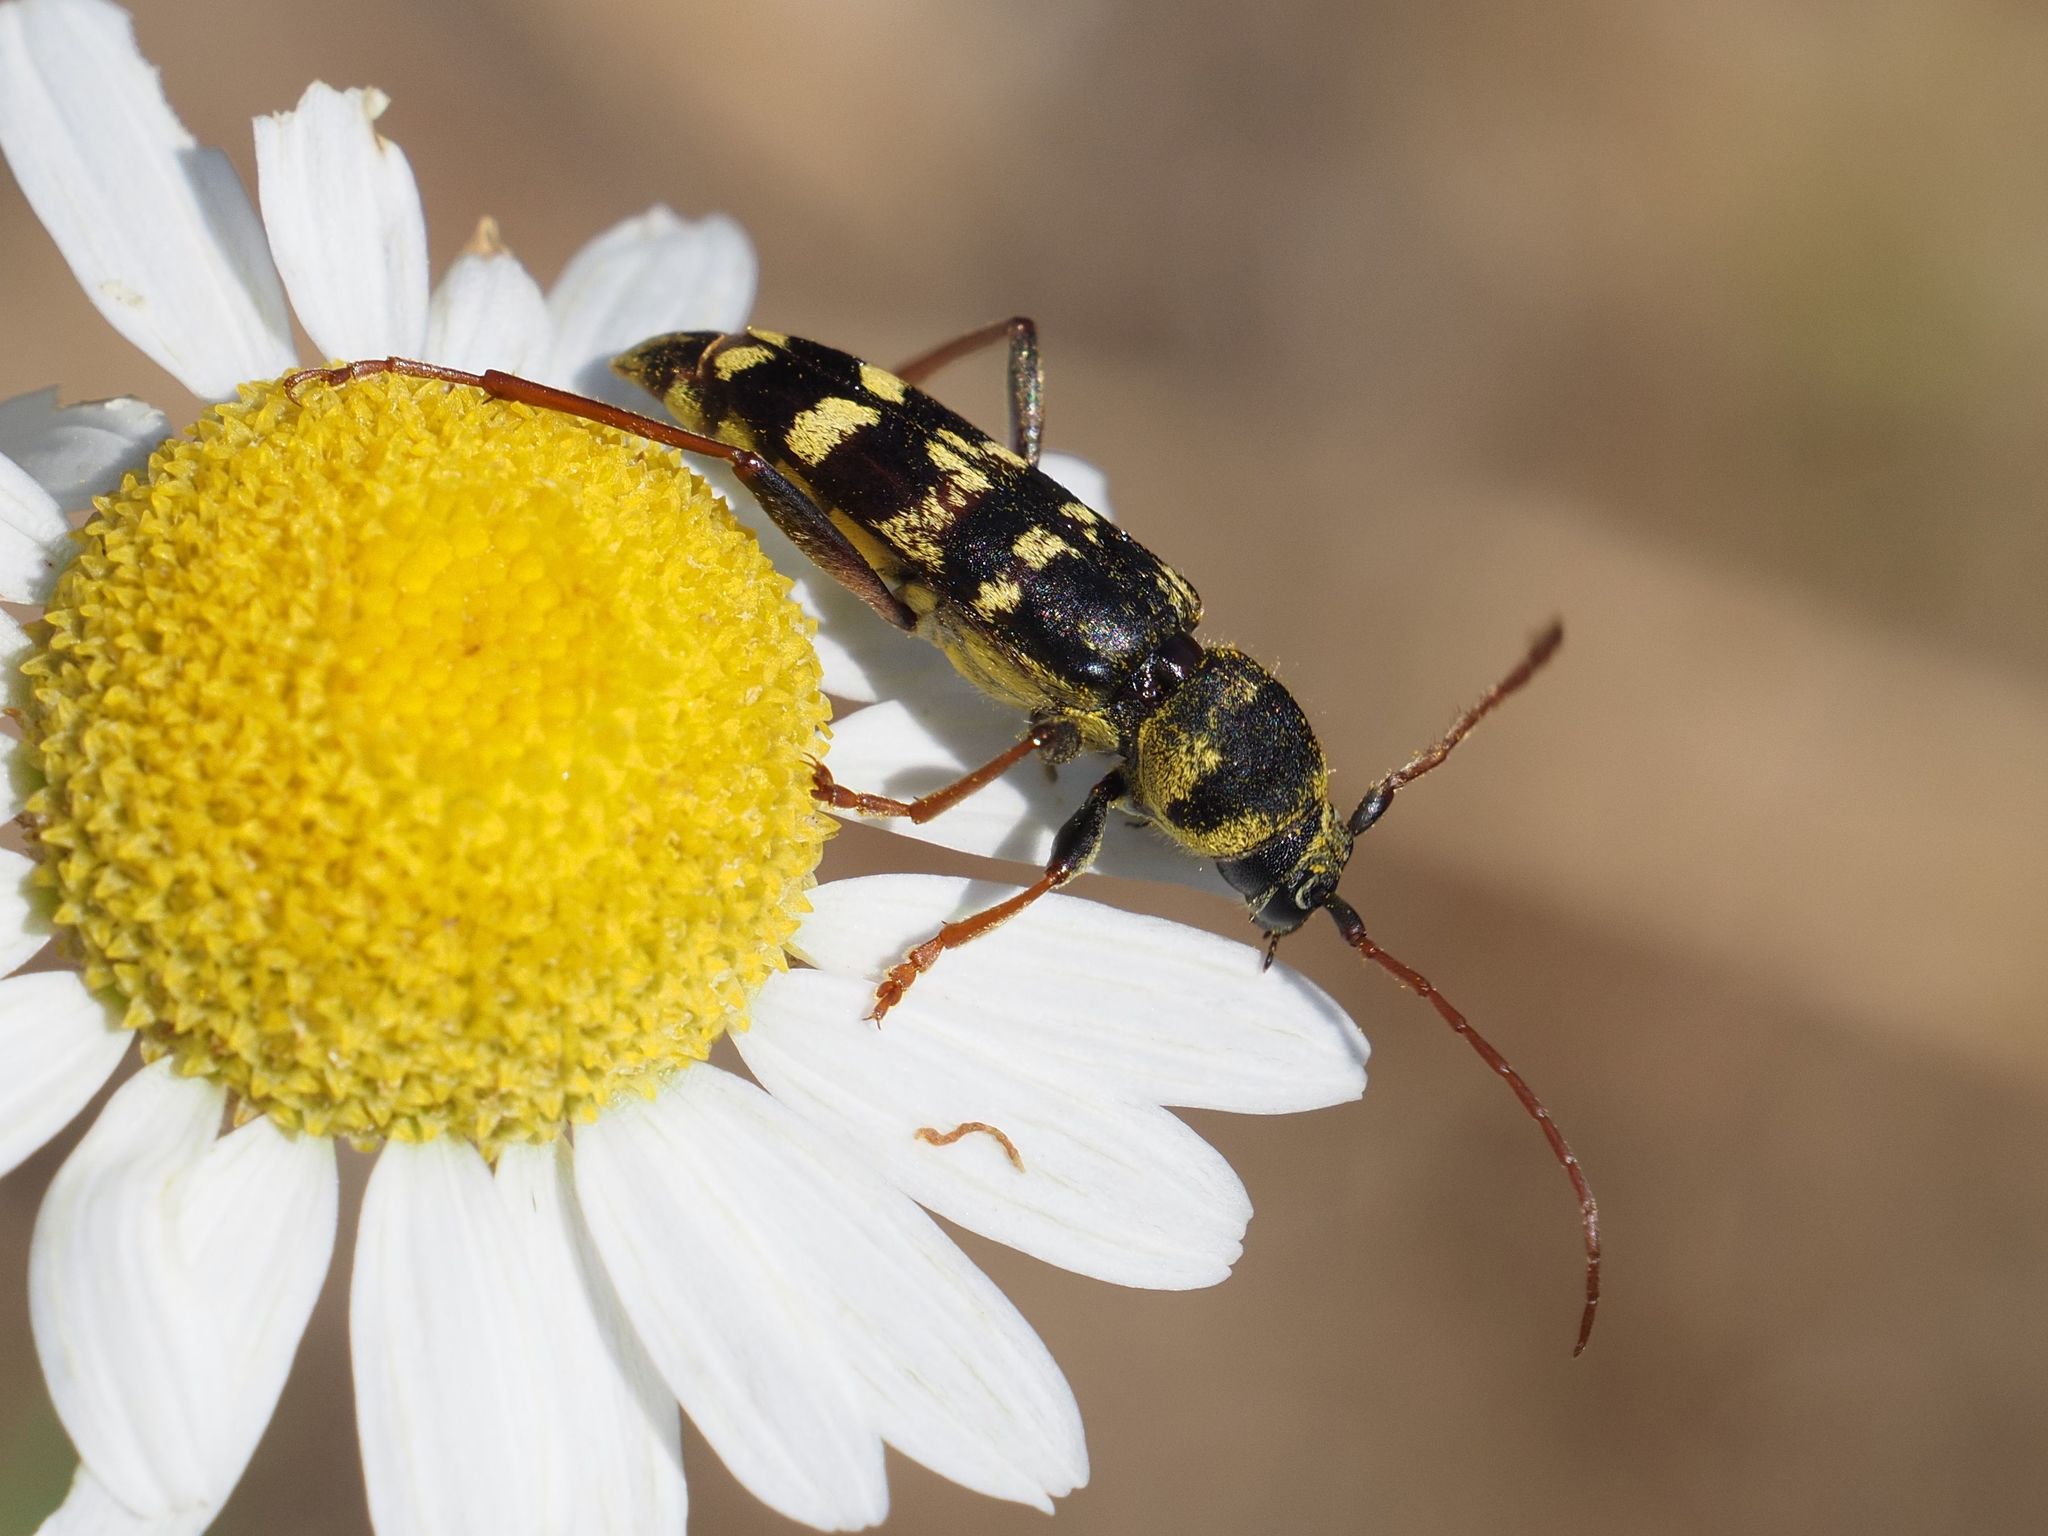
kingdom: Animalia
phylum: Arthropoda
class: Insecta
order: Coleoptera
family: Cerambycidae
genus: Plagionotus
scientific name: Plagionotus floralis
